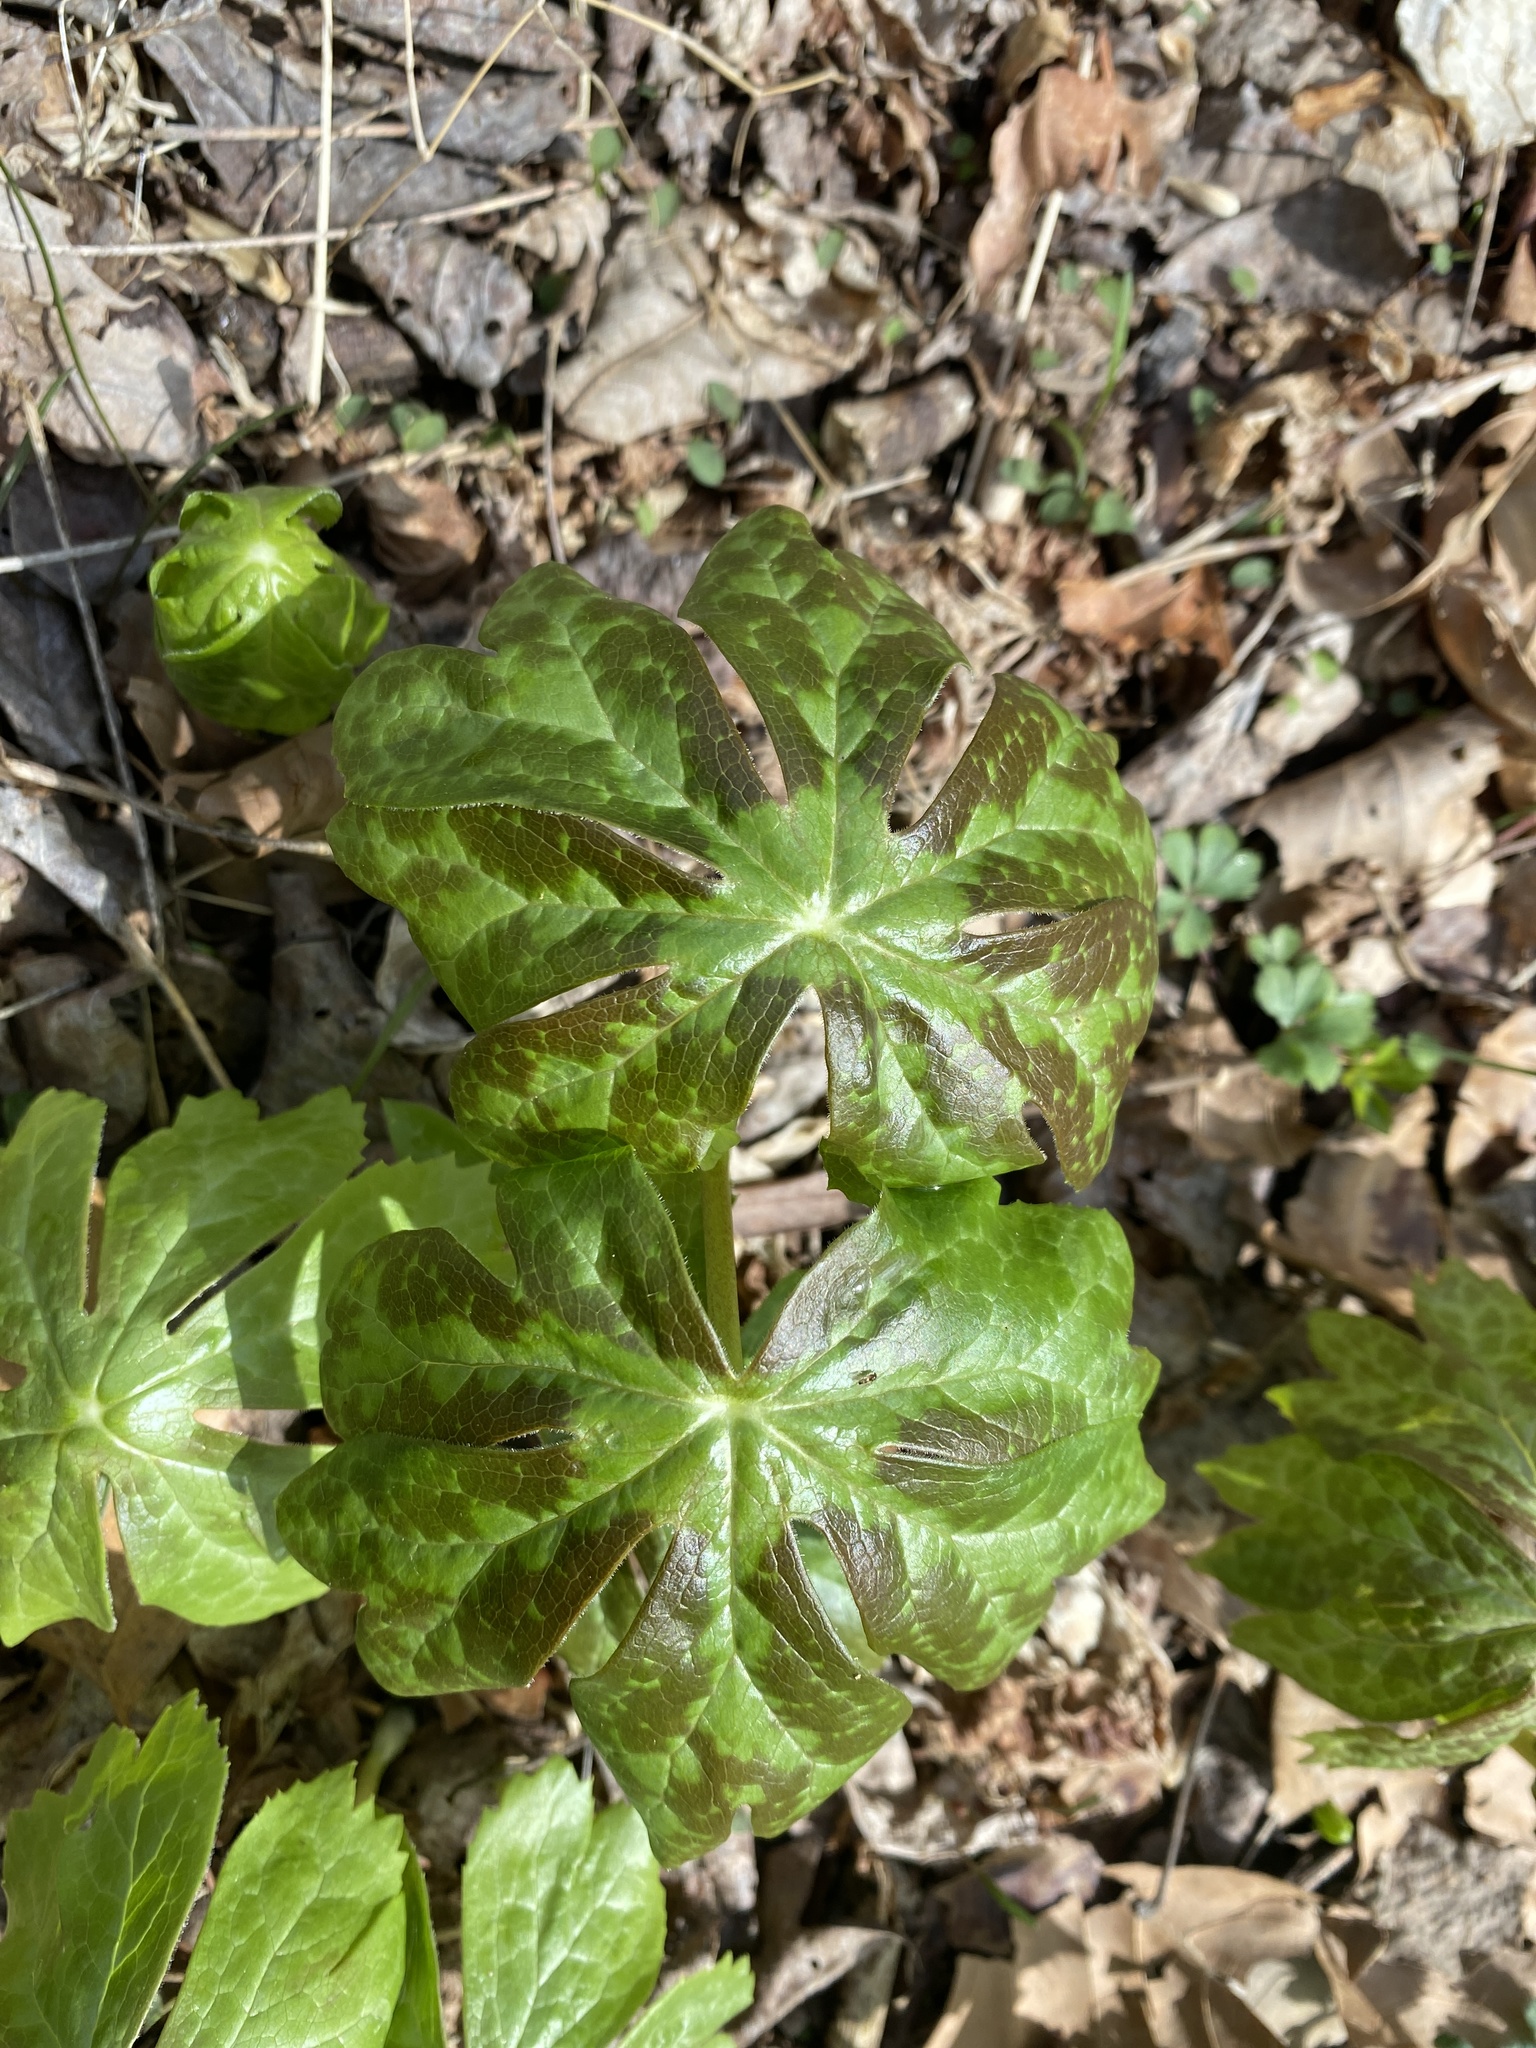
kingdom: Plantae
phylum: Tracheophyta
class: Magnoliopsida
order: Ranunculales
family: Berberidaceae
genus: Podophyllum
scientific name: Podophyllum peltatum
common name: Wild mandrake
